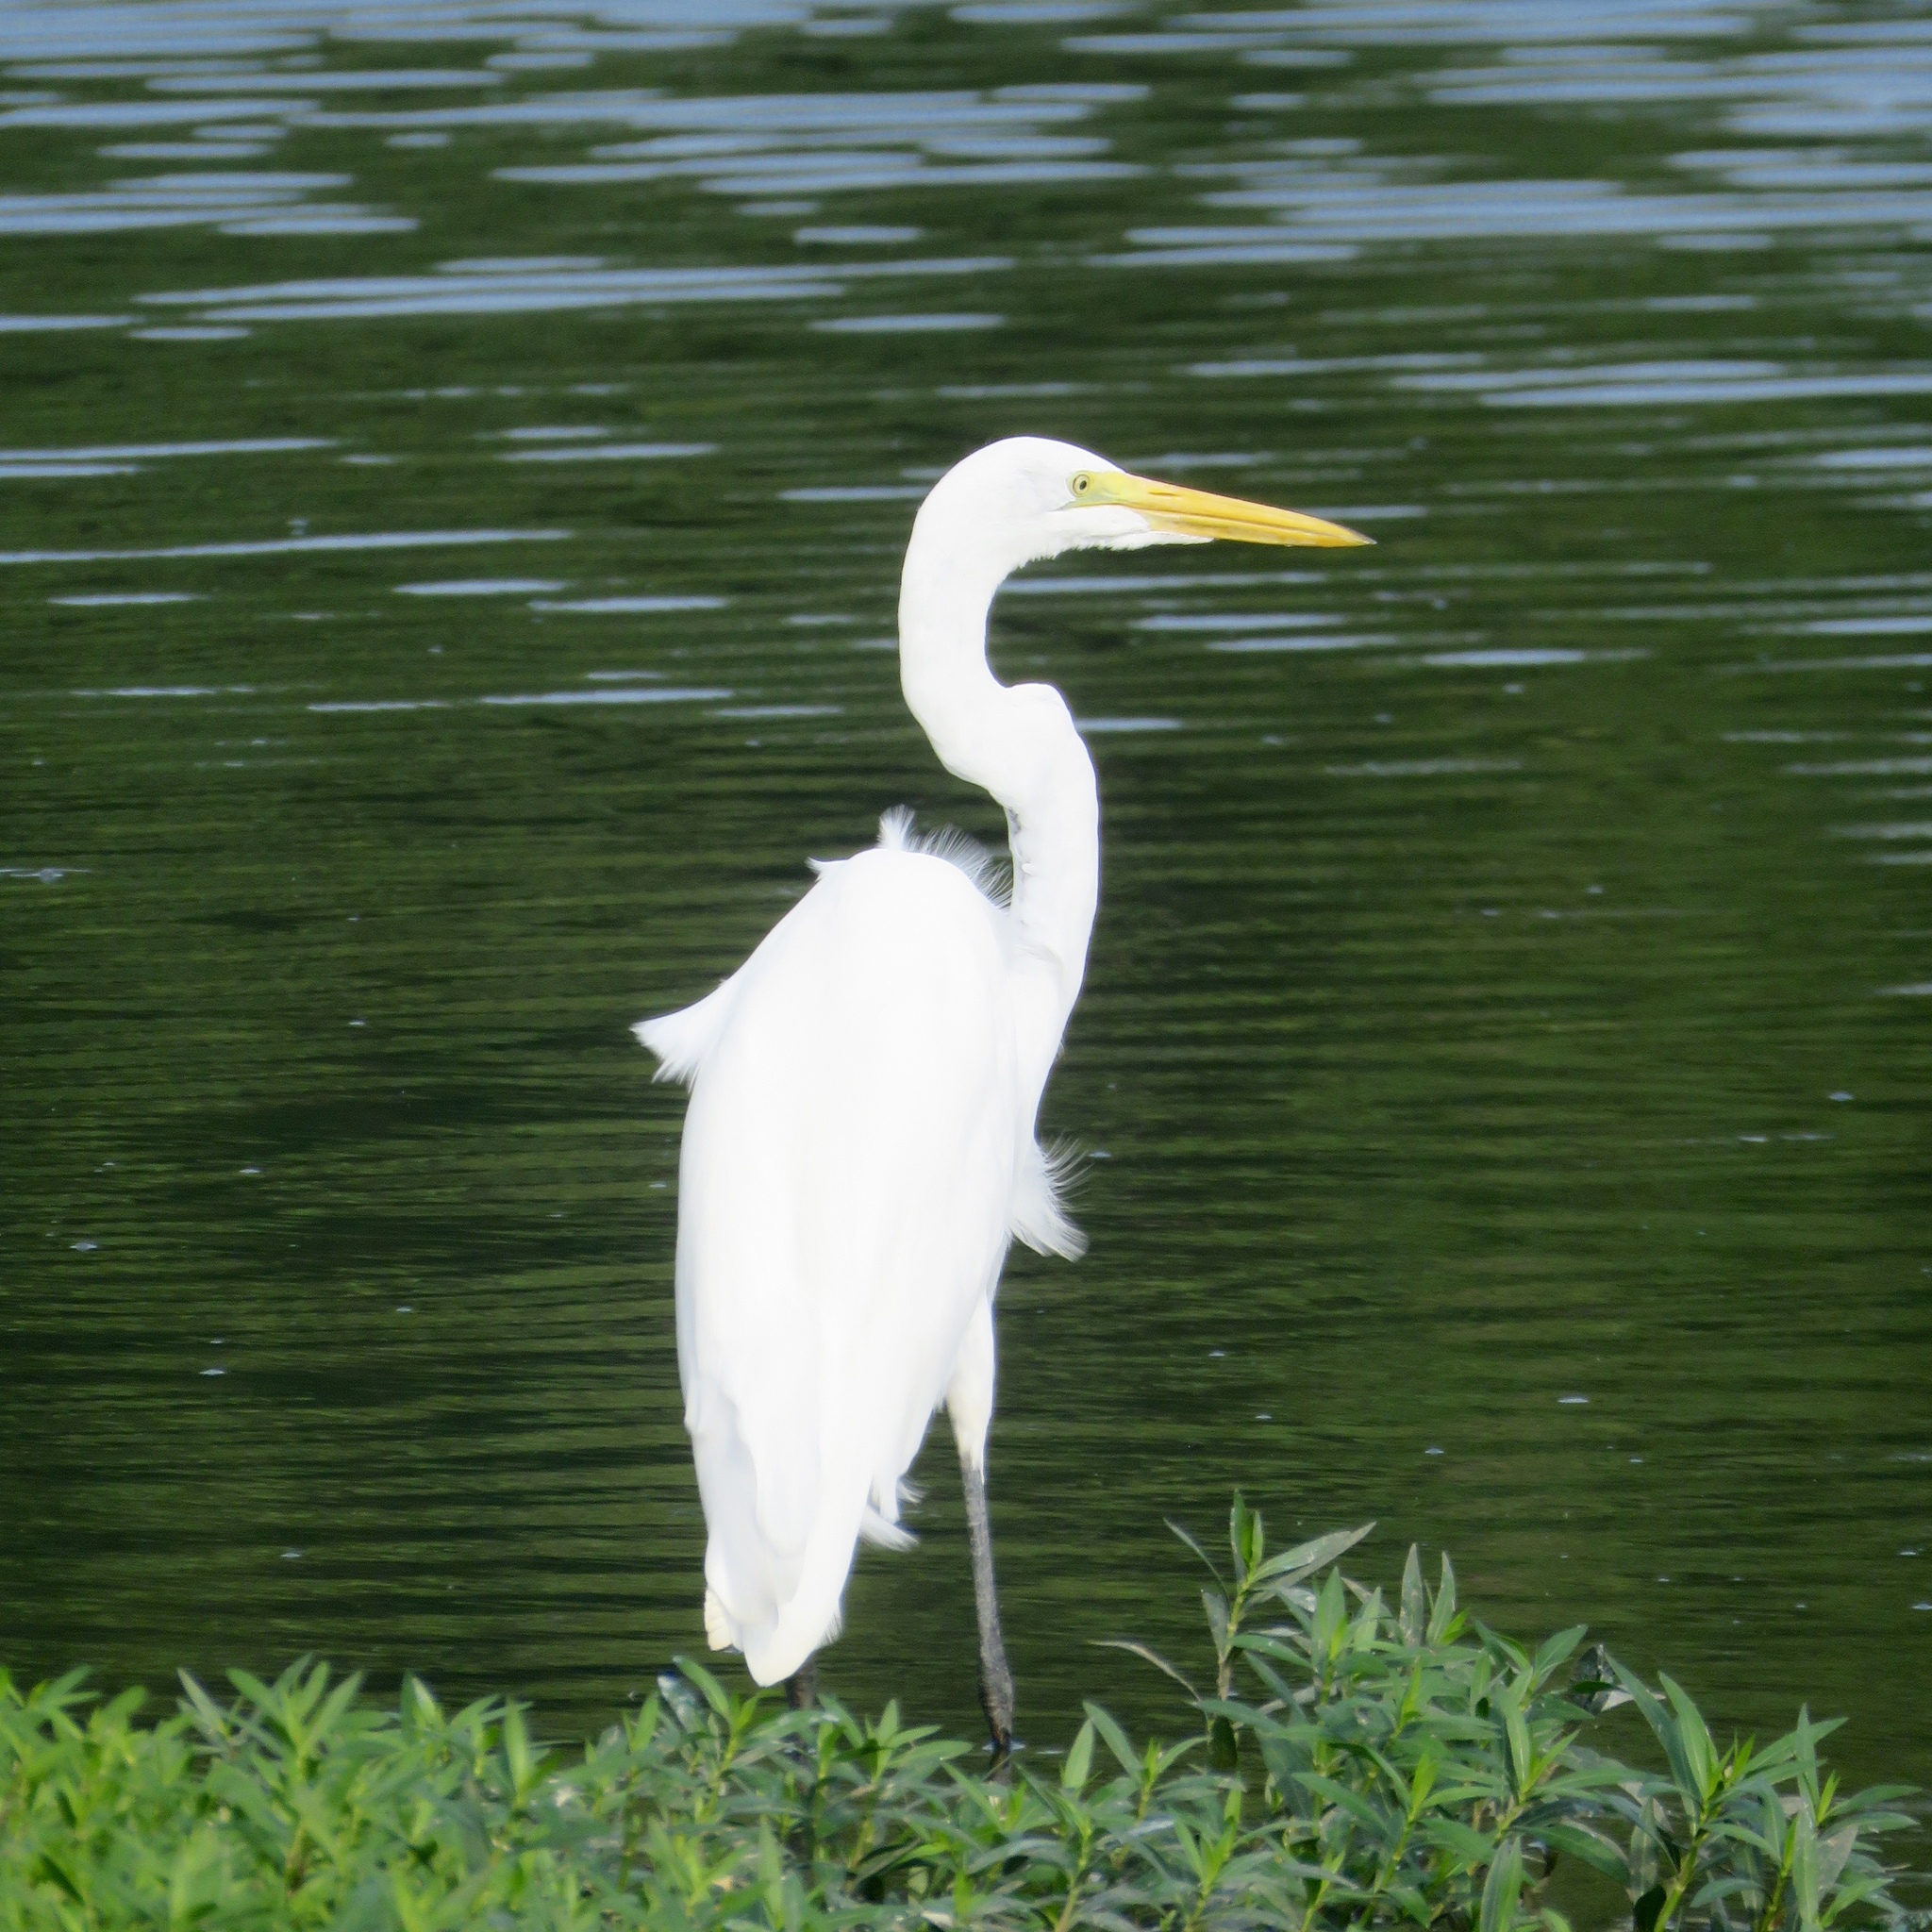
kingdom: Animalia
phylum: Chordata
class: Aves
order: Pelecaniformes
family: Ardeidae
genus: Ardea
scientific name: Ardea alba
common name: Great egret
